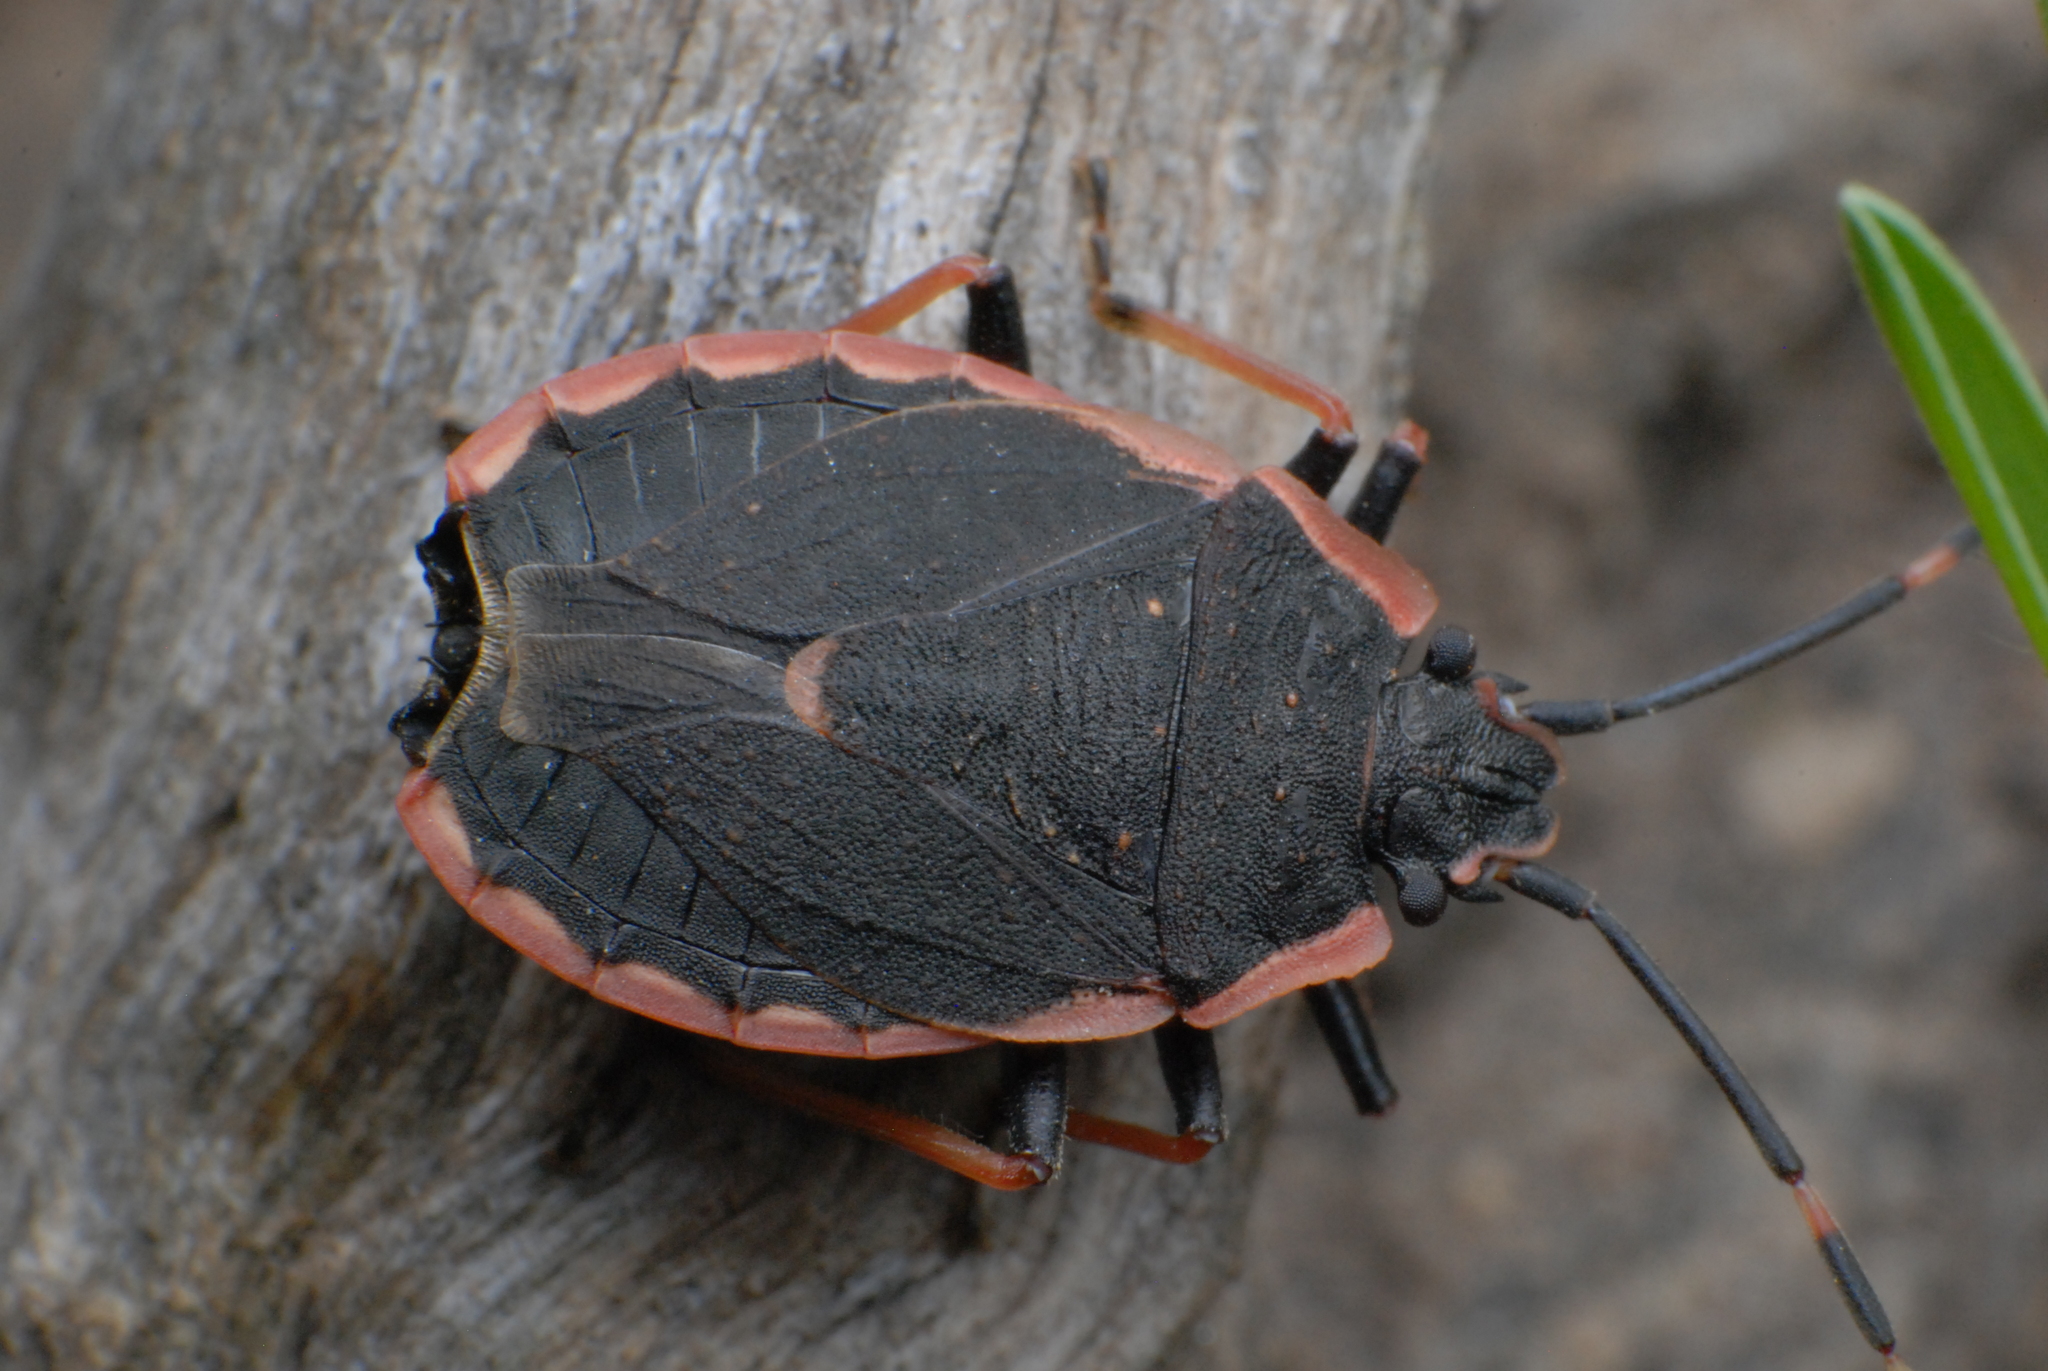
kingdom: Animalia
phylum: Arthropoda
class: Insecta
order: Hemiptera
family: Pentatomidae
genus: Diemenia
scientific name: Diemenia
